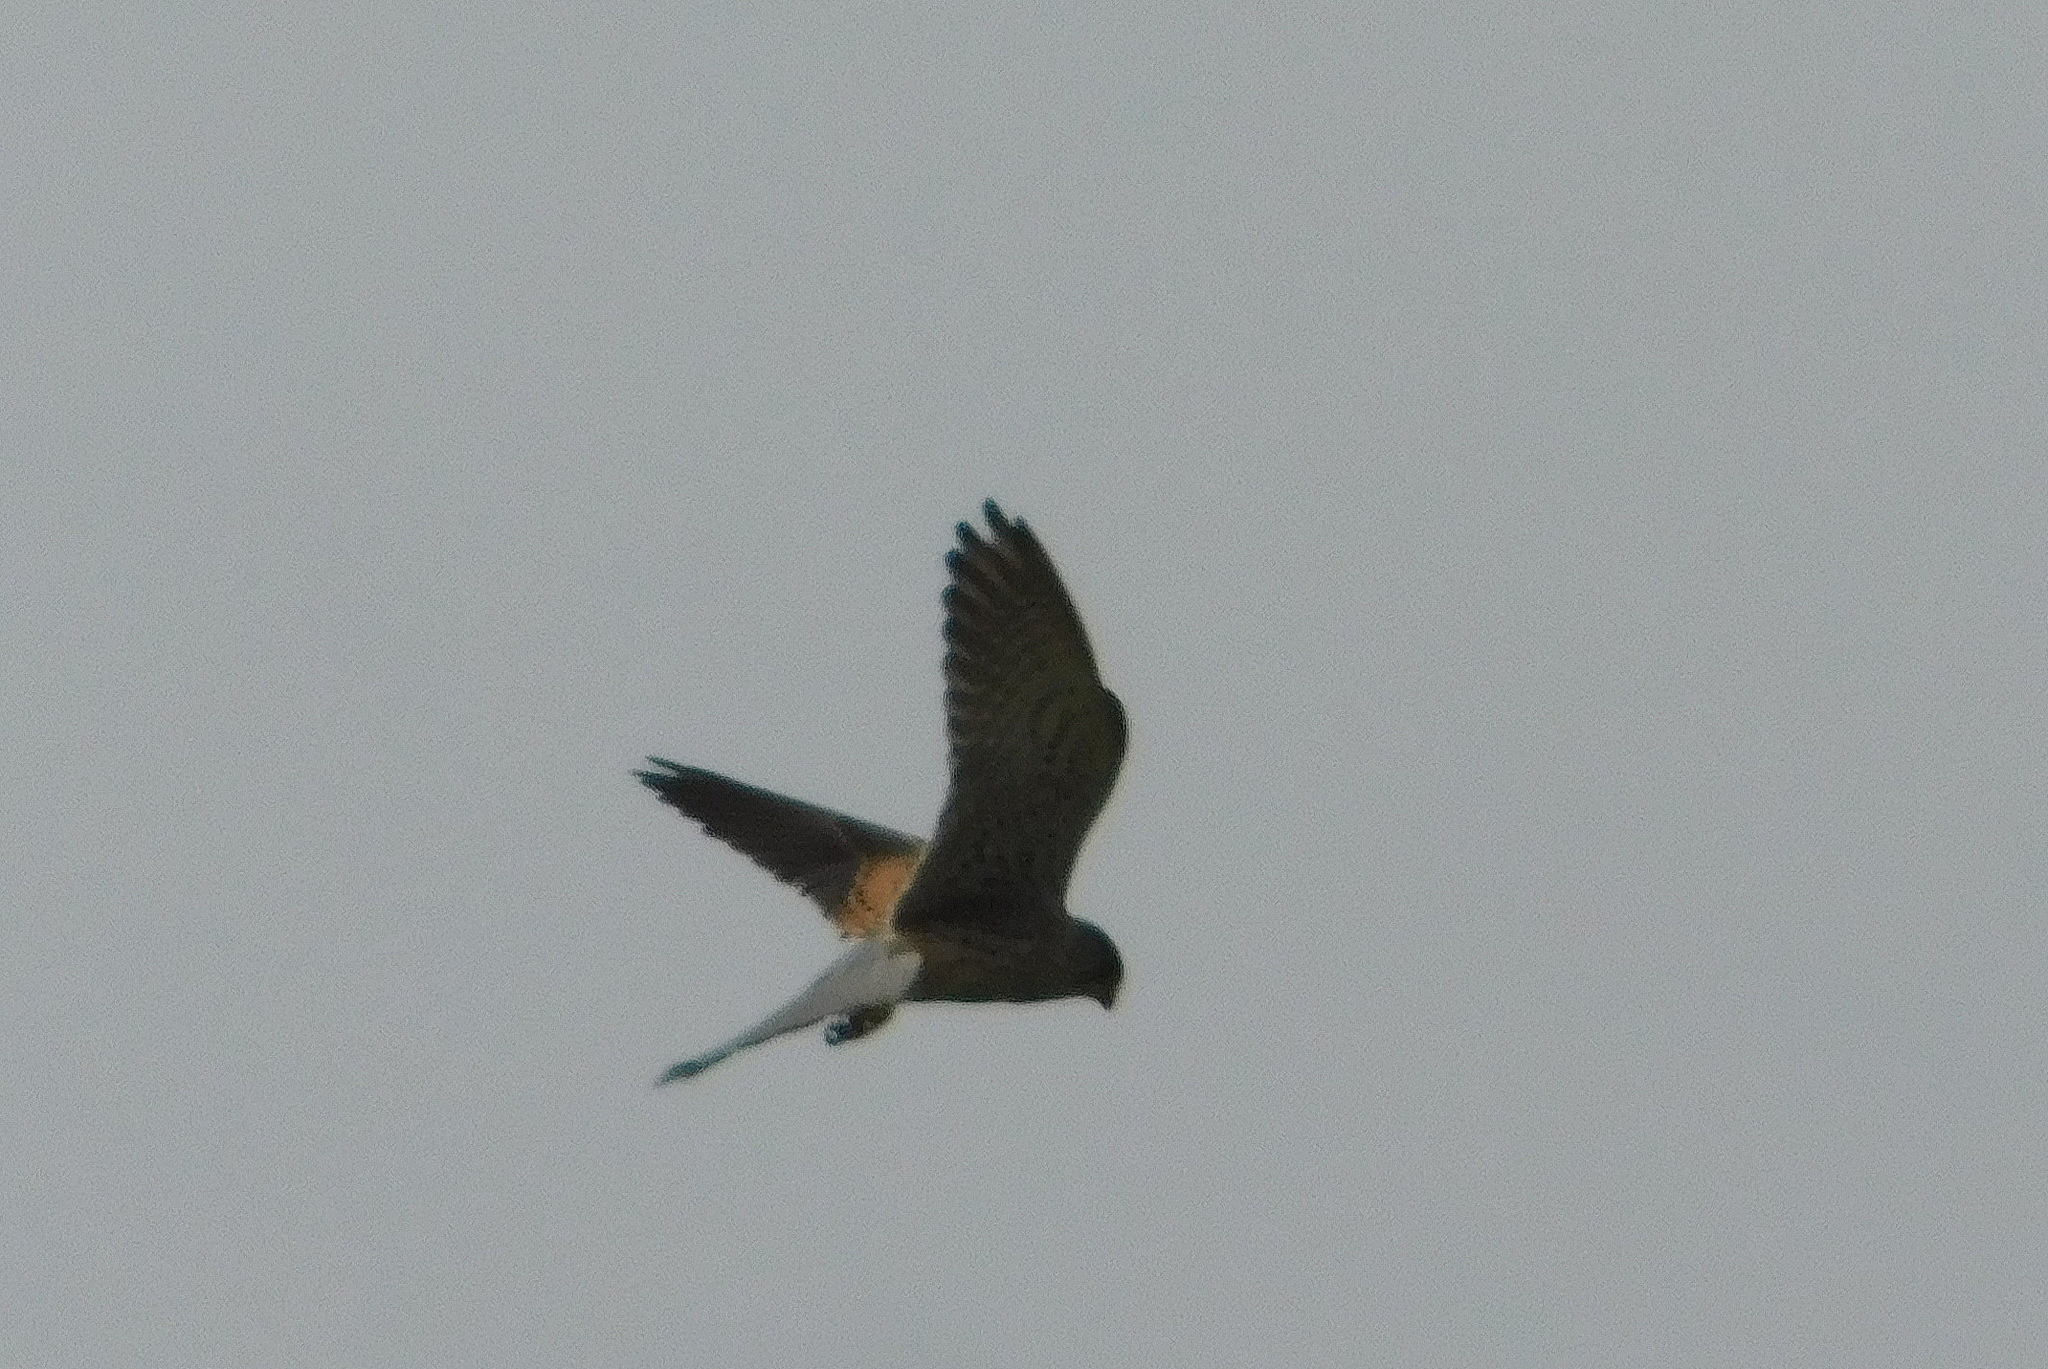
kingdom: Animalia
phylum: Chordata
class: Aves
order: Falconiformes
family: Falconidae
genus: Falco
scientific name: Falco tinnunculus
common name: Common kestrel
